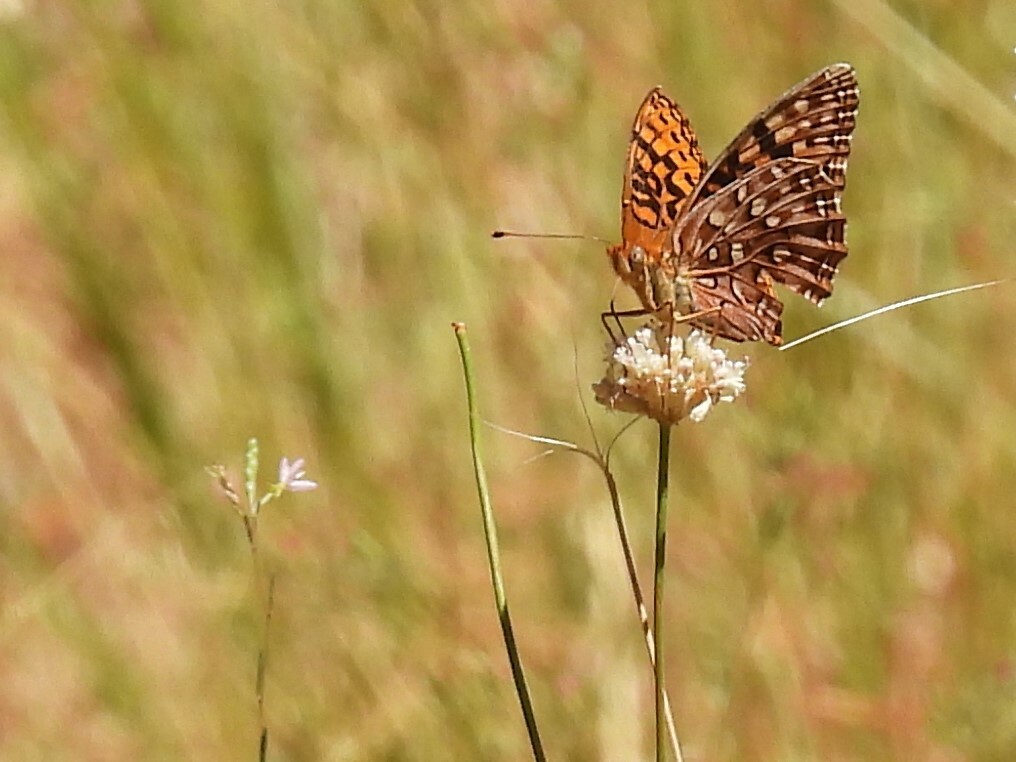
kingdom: Animalia
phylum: Arthropoda
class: Insecta
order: Lepidoptera
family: Nymphalidae
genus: Speyeria
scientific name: Speyeria zerene
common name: Zerene fritillary
